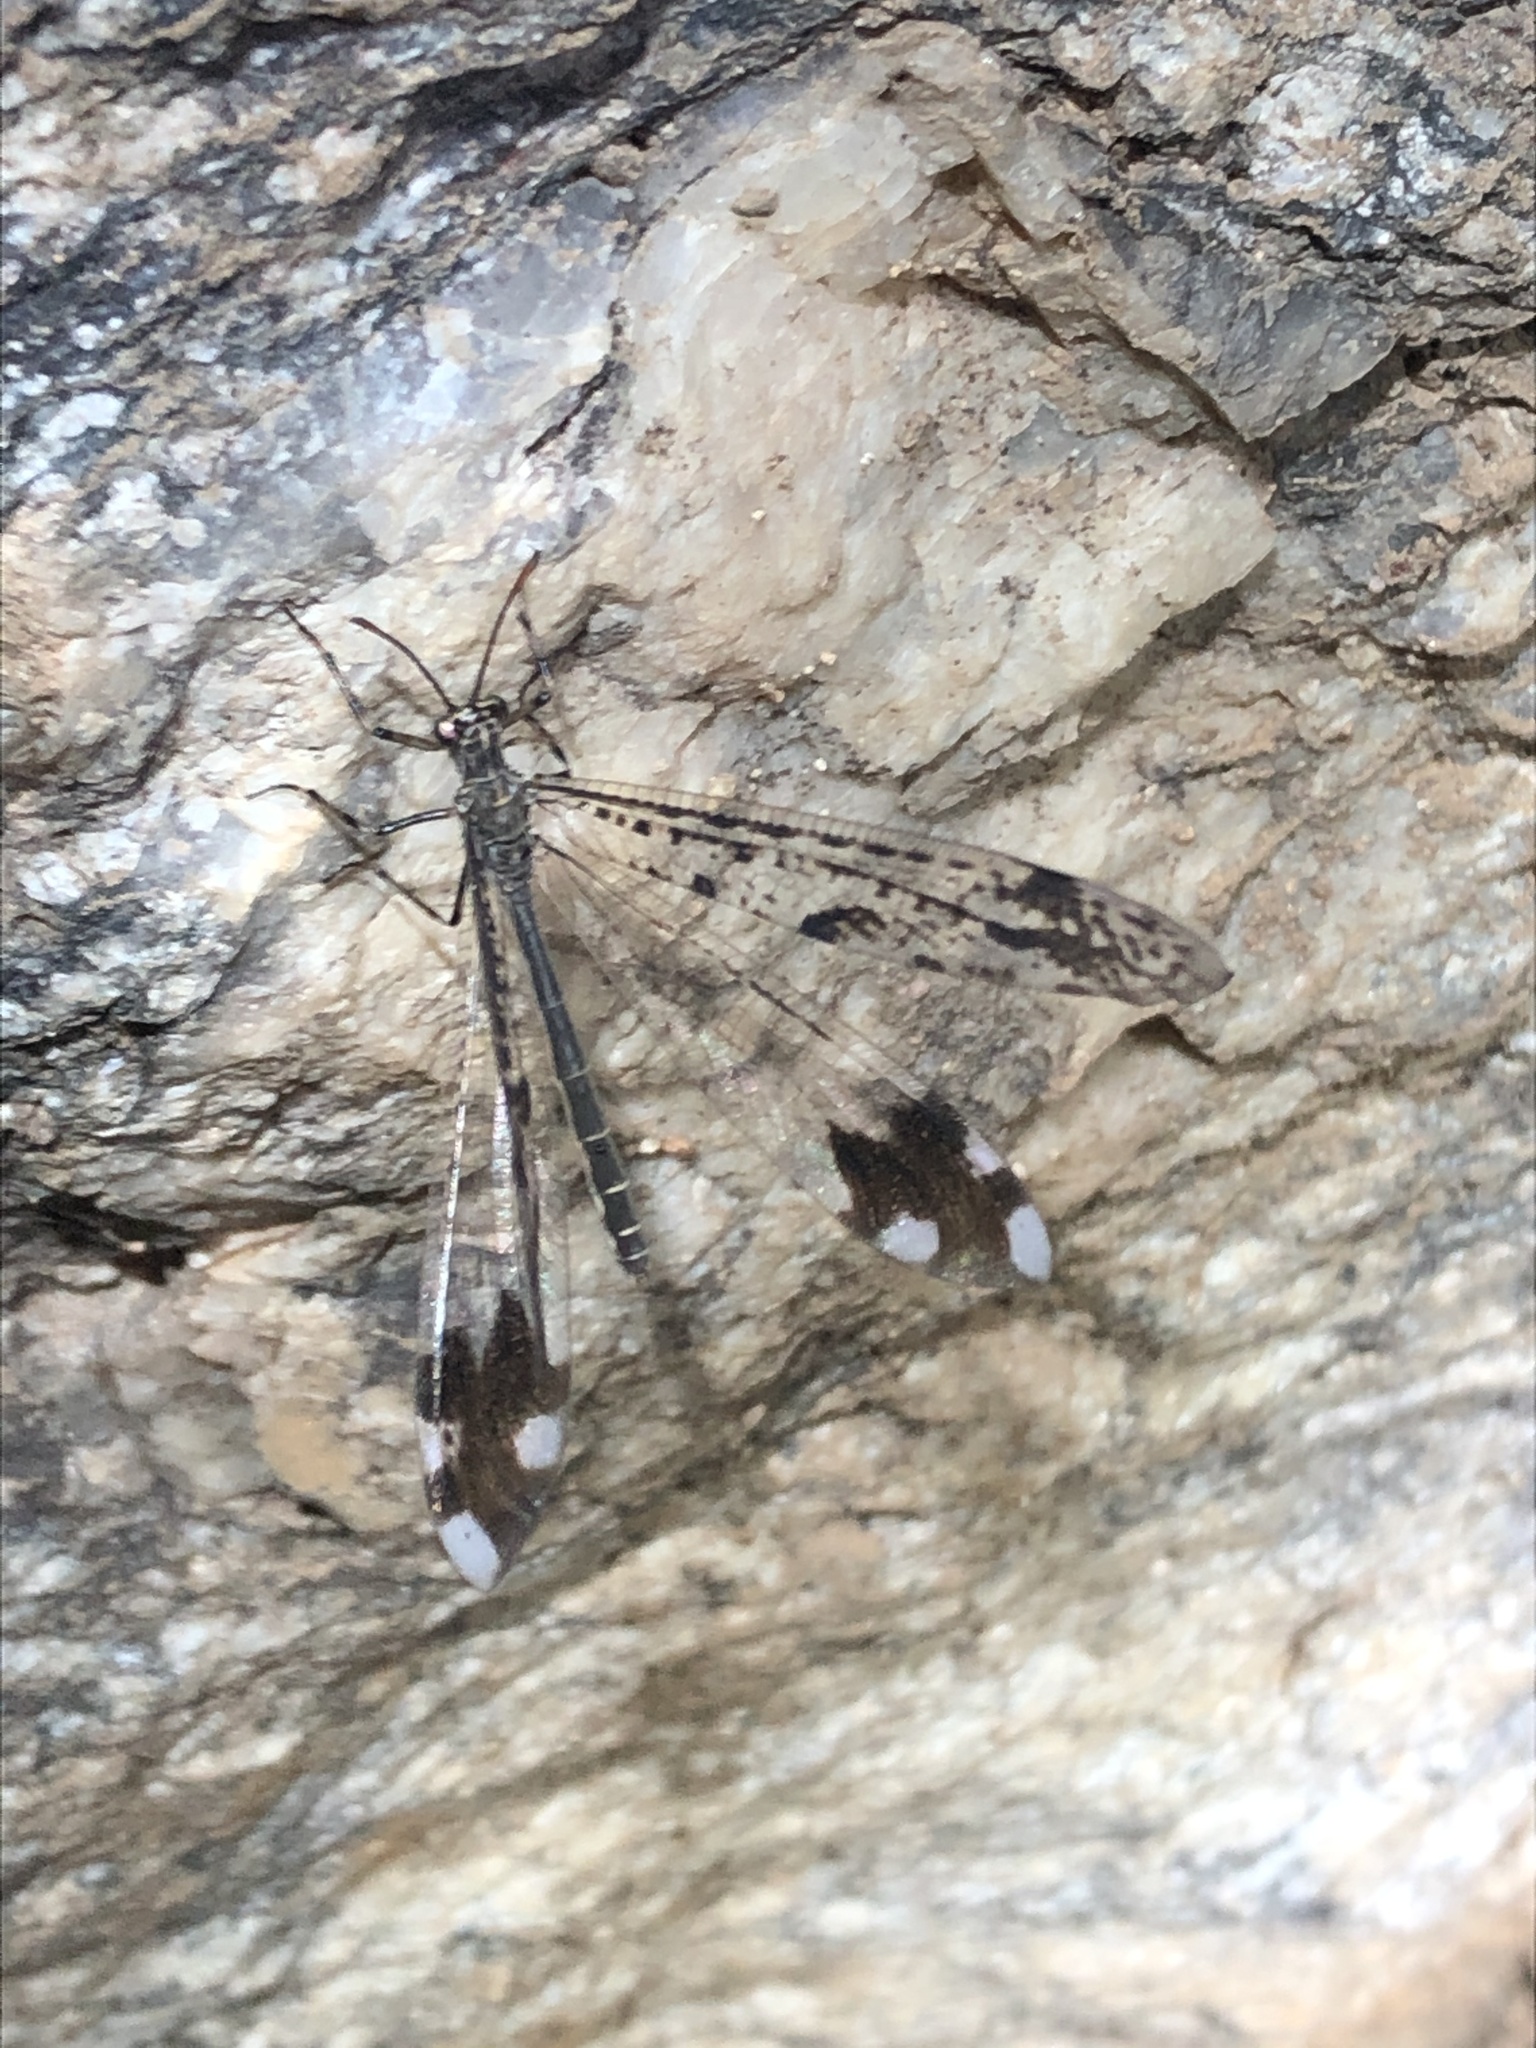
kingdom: Animalia
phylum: Arthropoda
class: Insecta
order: Neuroptera
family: Myrmeleontidae
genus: Glenurus
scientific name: Glenurus snowii
